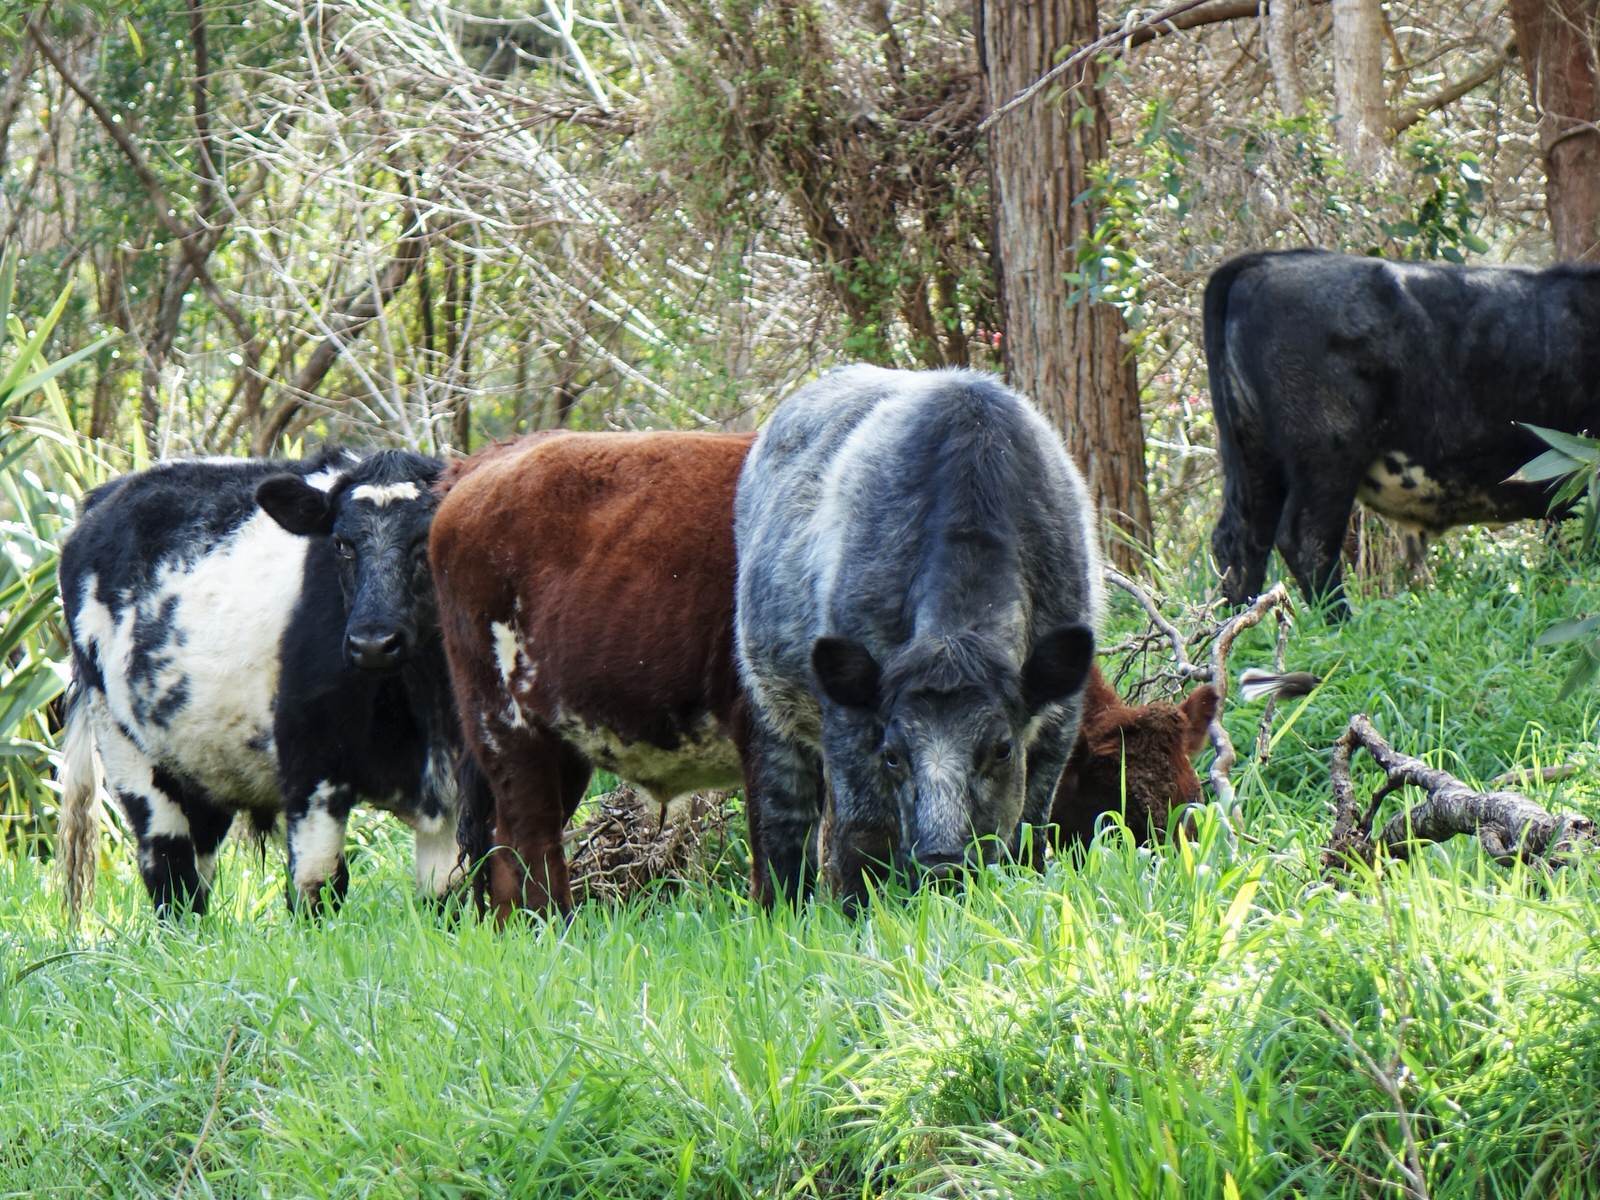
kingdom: Animalia
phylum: Chordata
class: Aves
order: Passeriformes
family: Rhipiduridae
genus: Rhipidura
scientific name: Rhipidura fuliginosa
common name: New zealand fantail
